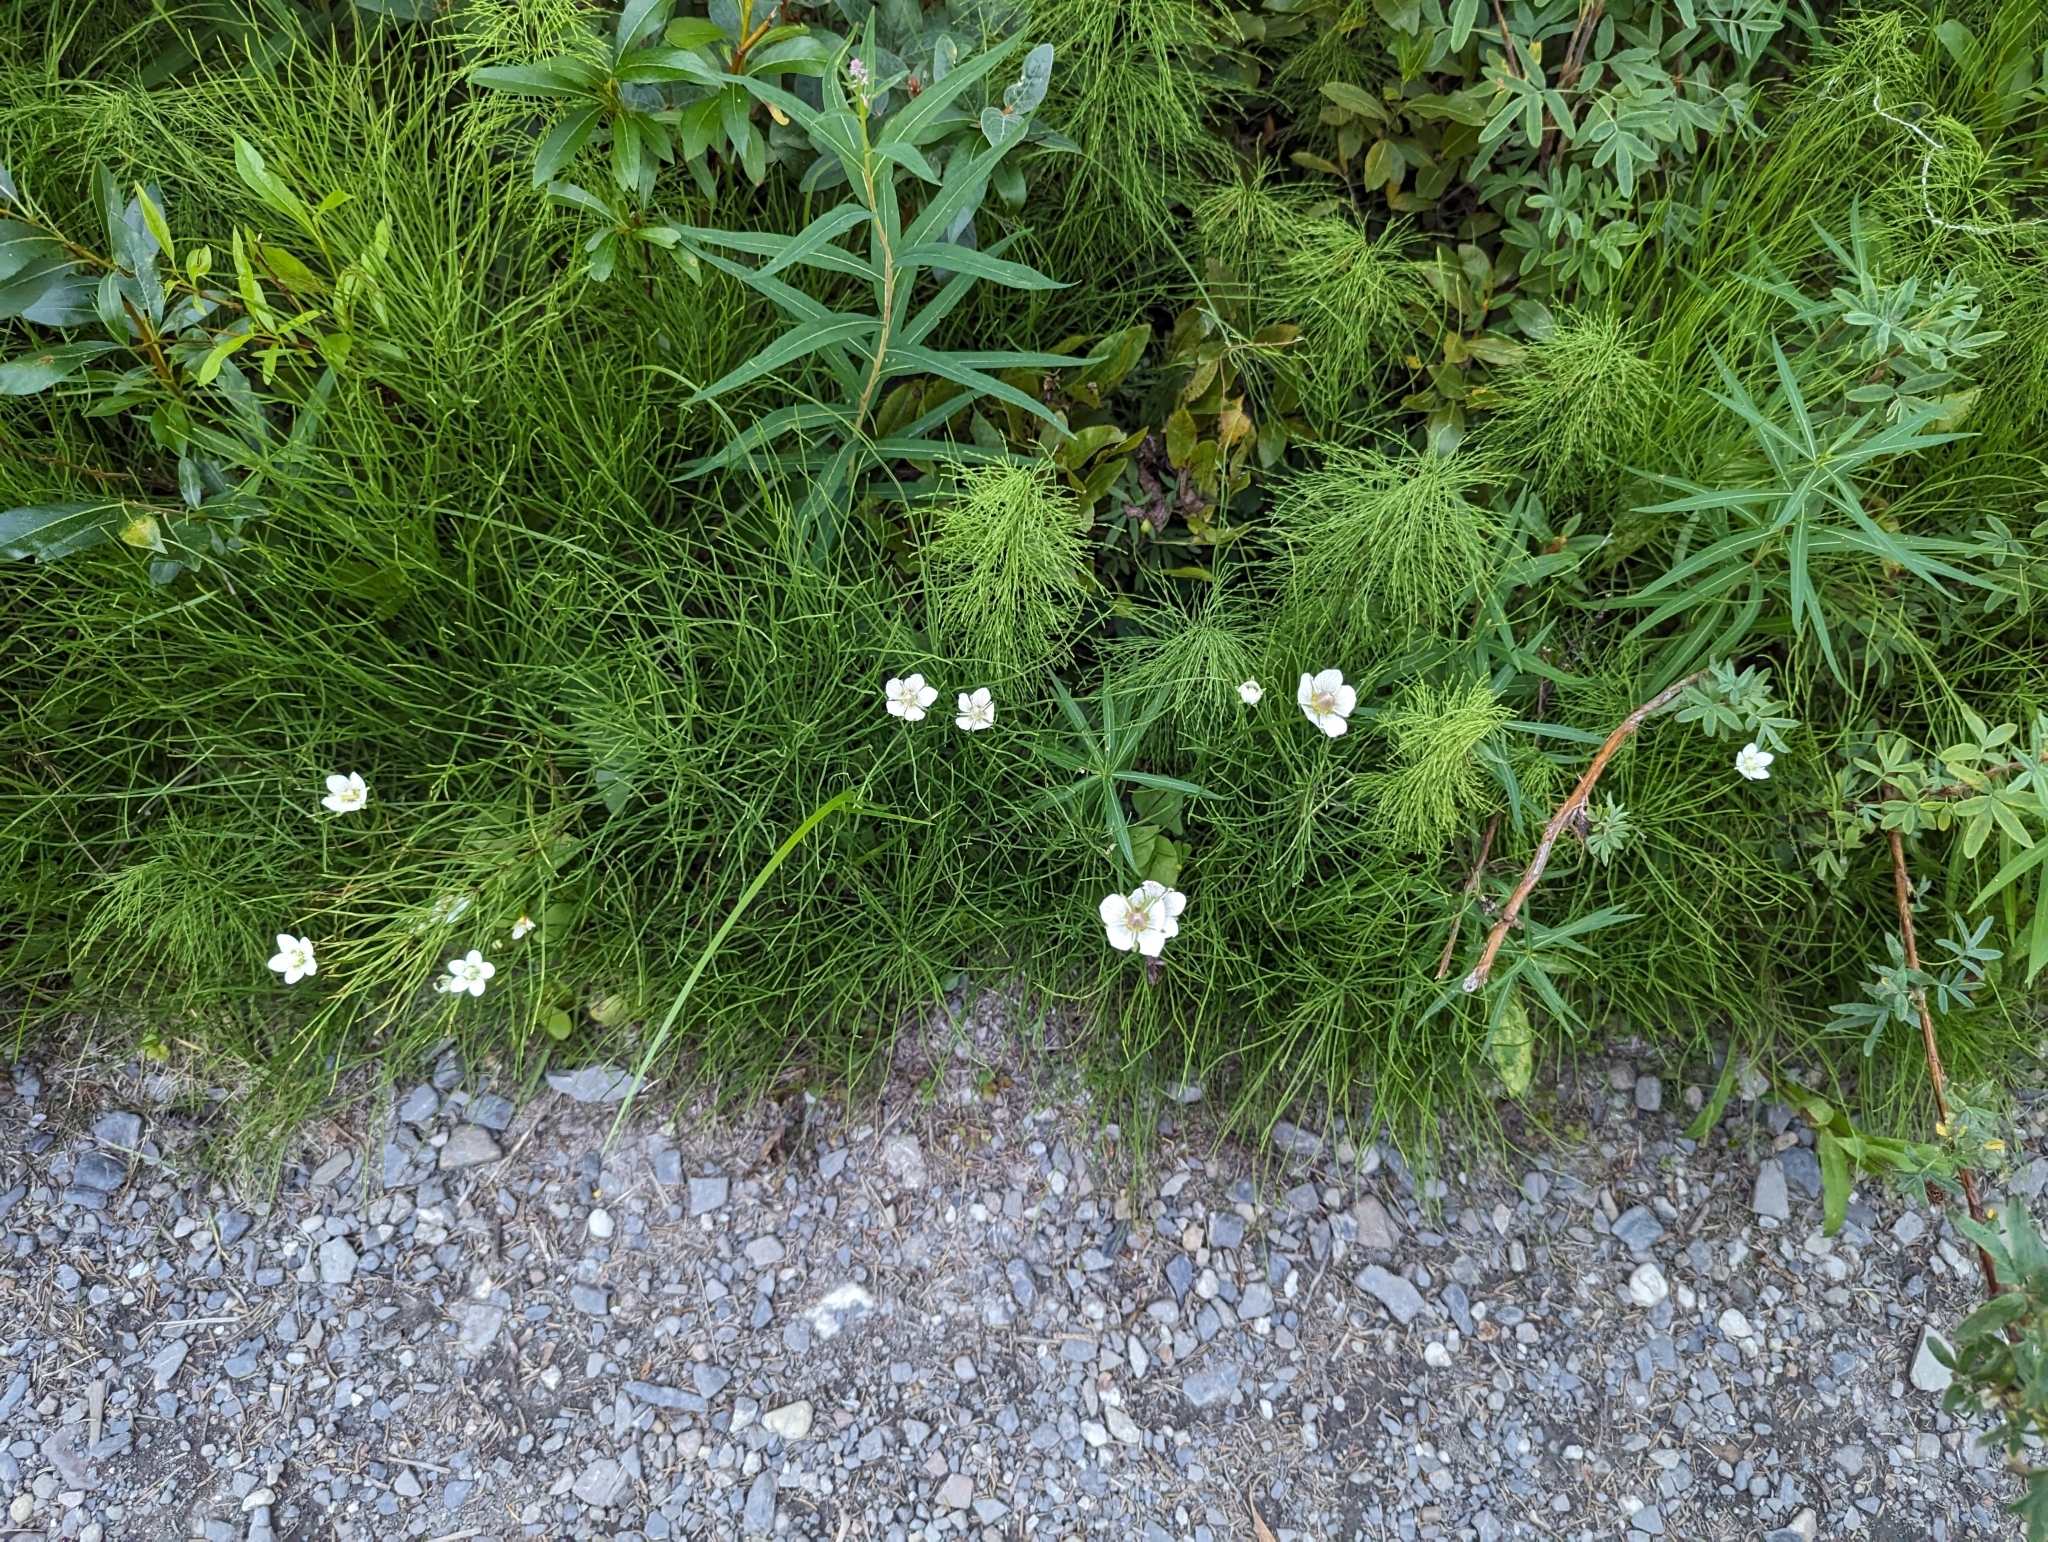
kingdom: Plantae
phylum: Tracheophyta
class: Magnoliopsida
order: Celastrales
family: Parnassiaceae
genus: Parnassia
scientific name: Parnassia palustris
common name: Grass-of-parnassus
